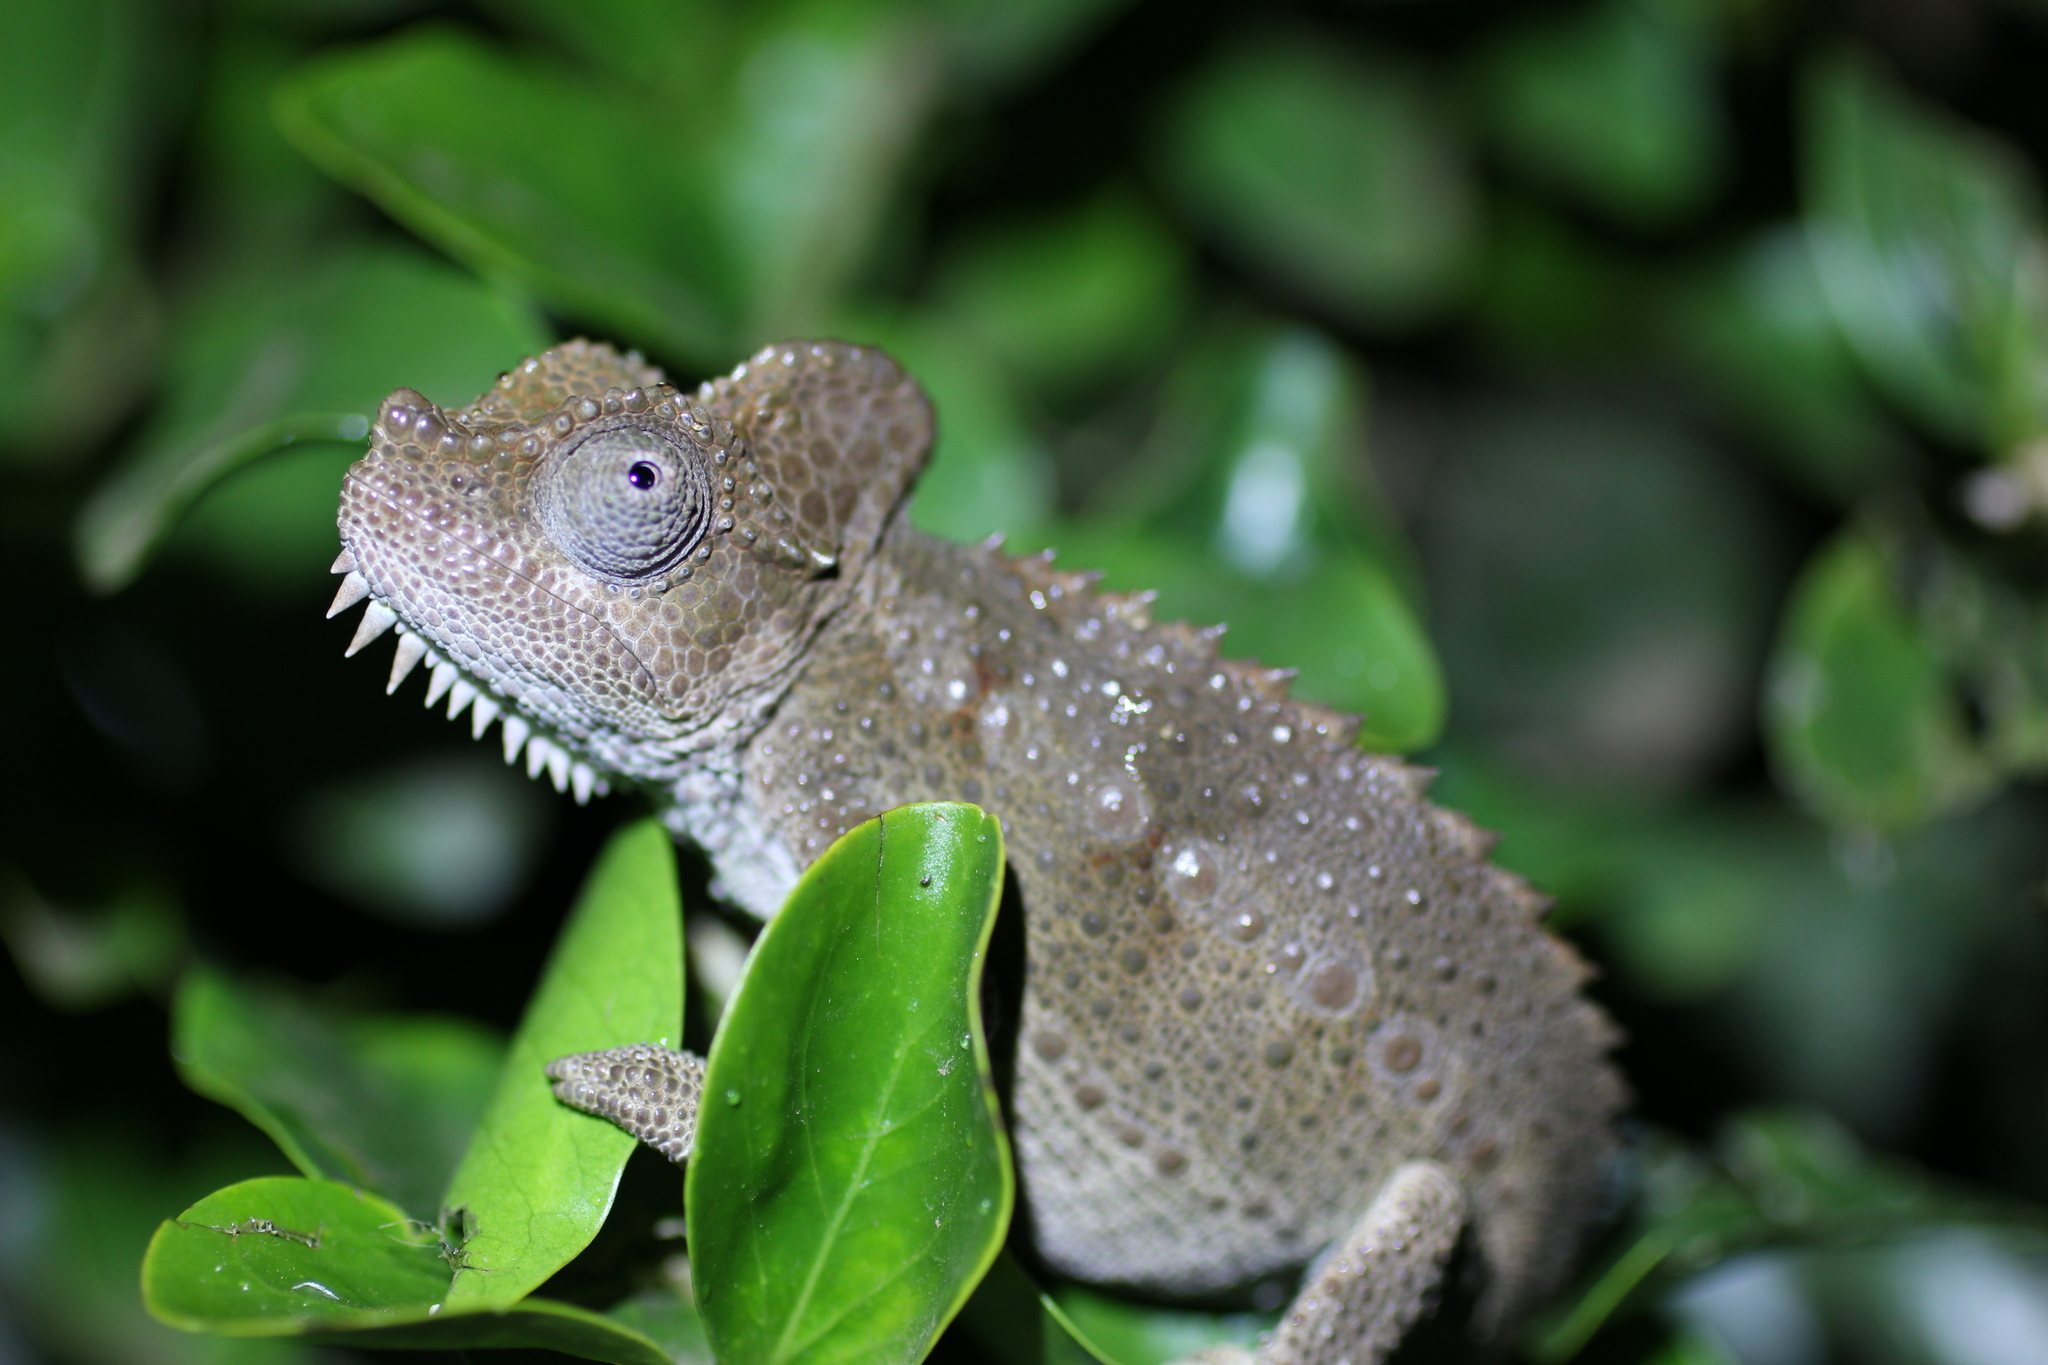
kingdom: Animalia
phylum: Chordata
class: Squamata
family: Chamaeleonidae
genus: Trioceros
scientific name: Trioceros hoehnelii
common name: High-casqued chameleon
